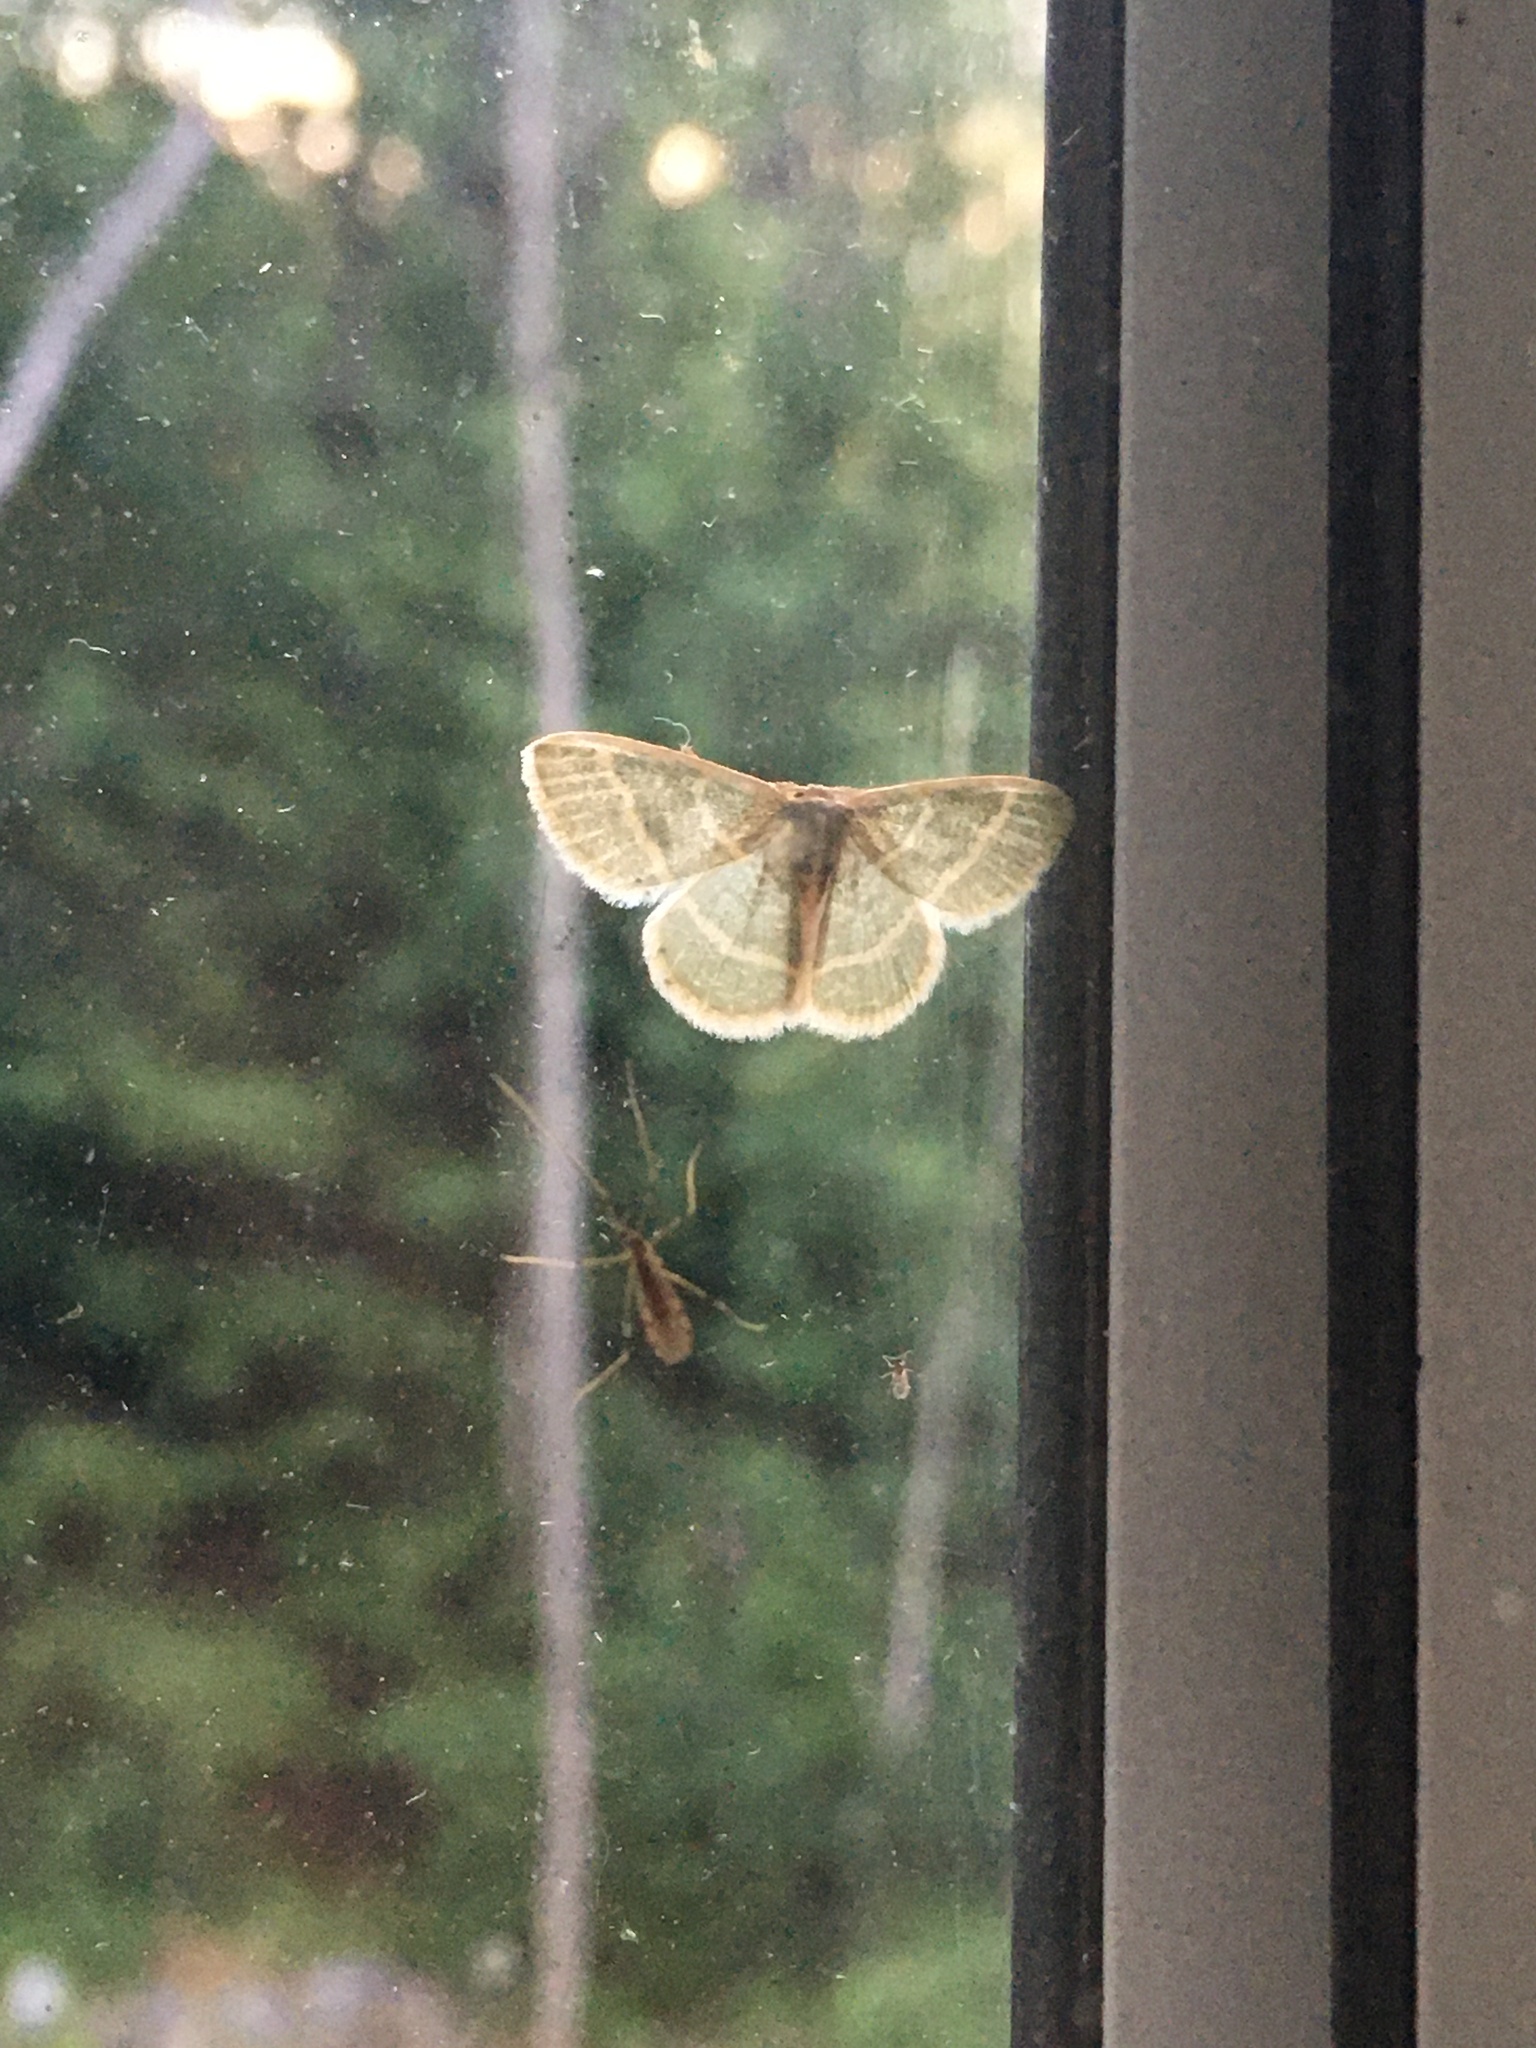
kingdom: Animalia
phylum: Arthropoda
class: Insecta
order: Lepidoptera
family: Geometridae
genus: Chlorochlamys
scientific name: Chlorochlamys chloroleucaria
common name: Blackberry looper
